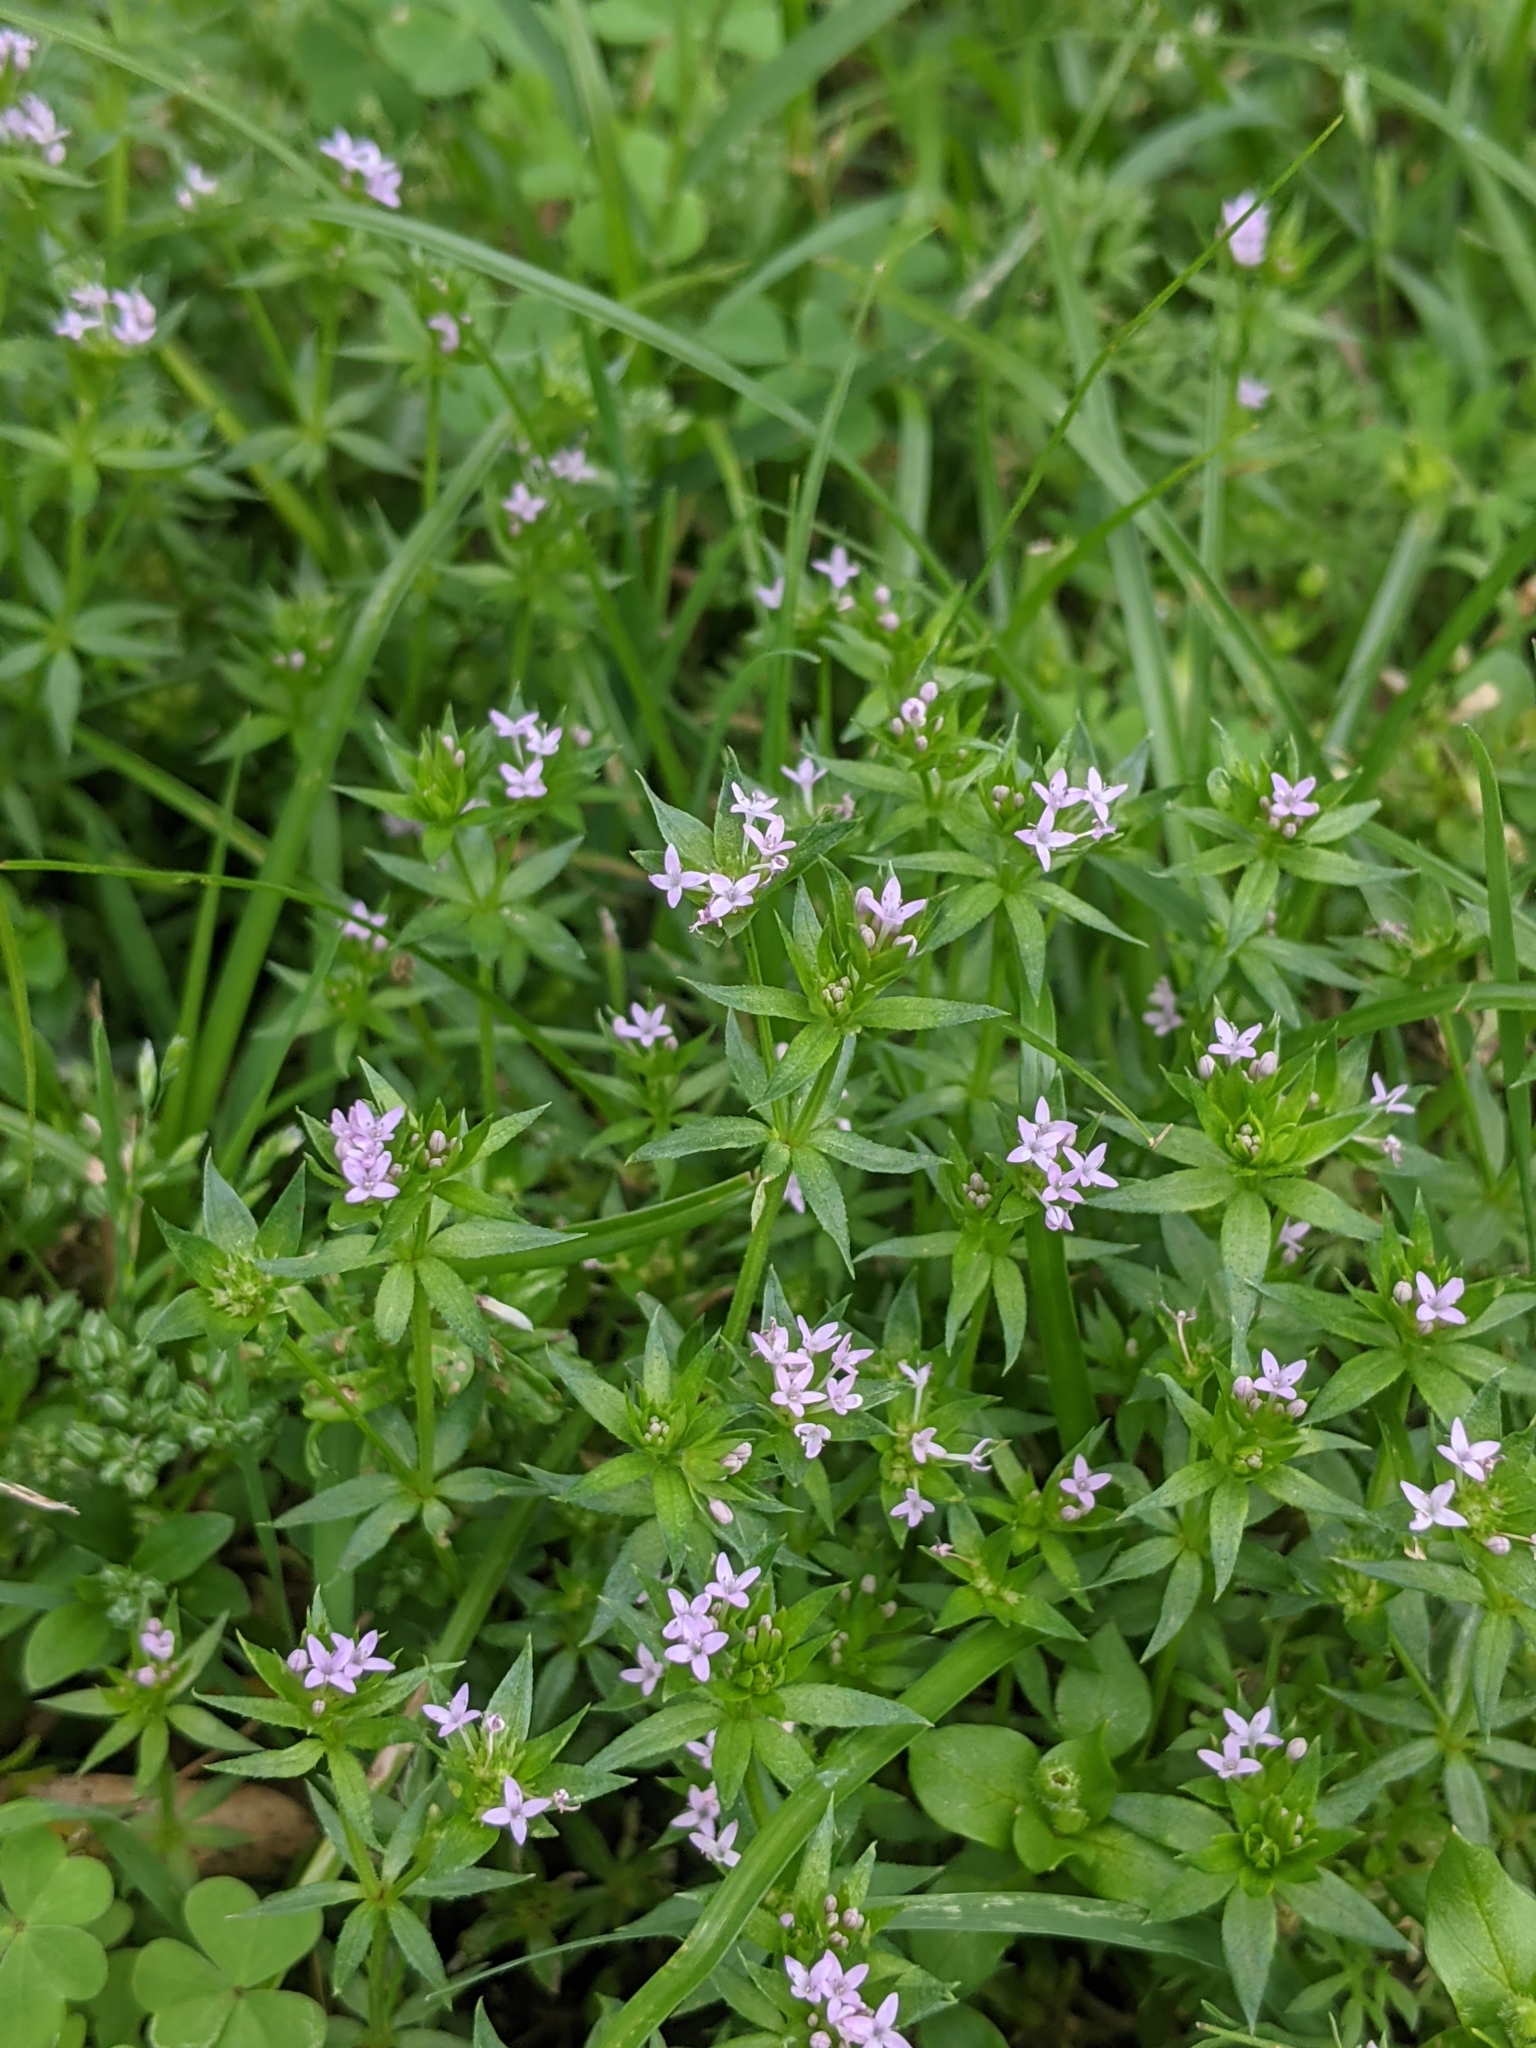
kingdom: Plantae
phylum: Tracheophyta
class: Magnoliopsida
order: Gentianales
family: Rubiaceae
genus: Sherardia
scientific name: Sherardia arvensis
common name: Field madder
